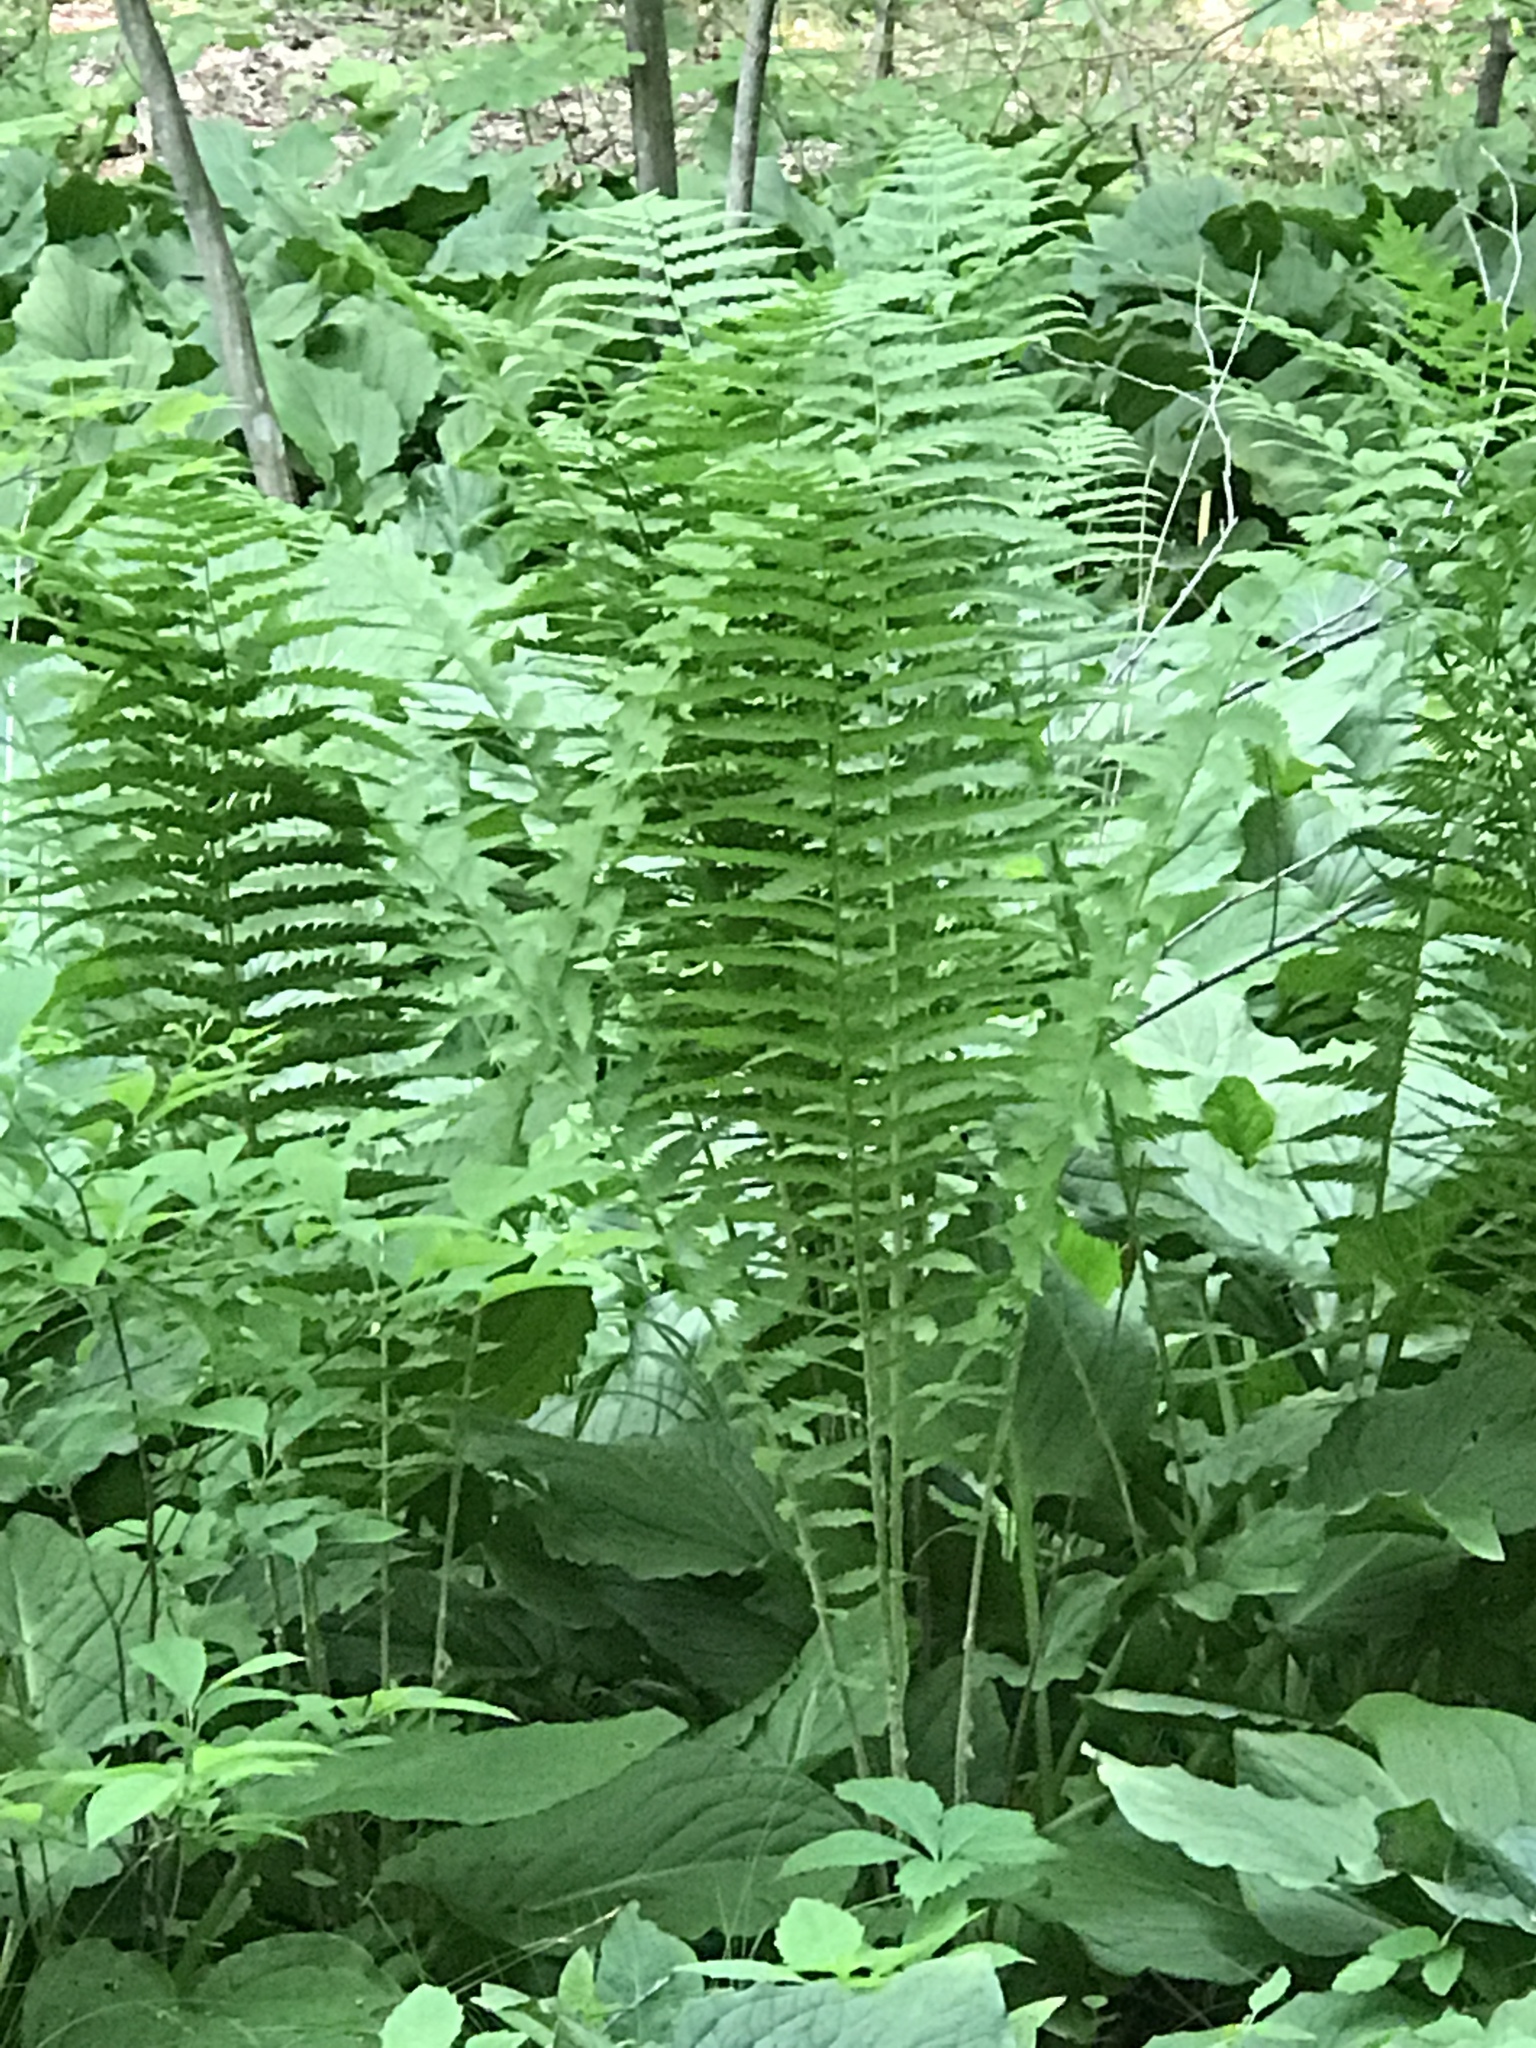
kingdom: Plantae
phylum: Tracheophyta
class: Polypodiopsida
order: Polypodiales
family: Onocleaceae
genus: Matteuccia
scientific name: Matteuccia struthiopteris
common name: Ostrich fern
